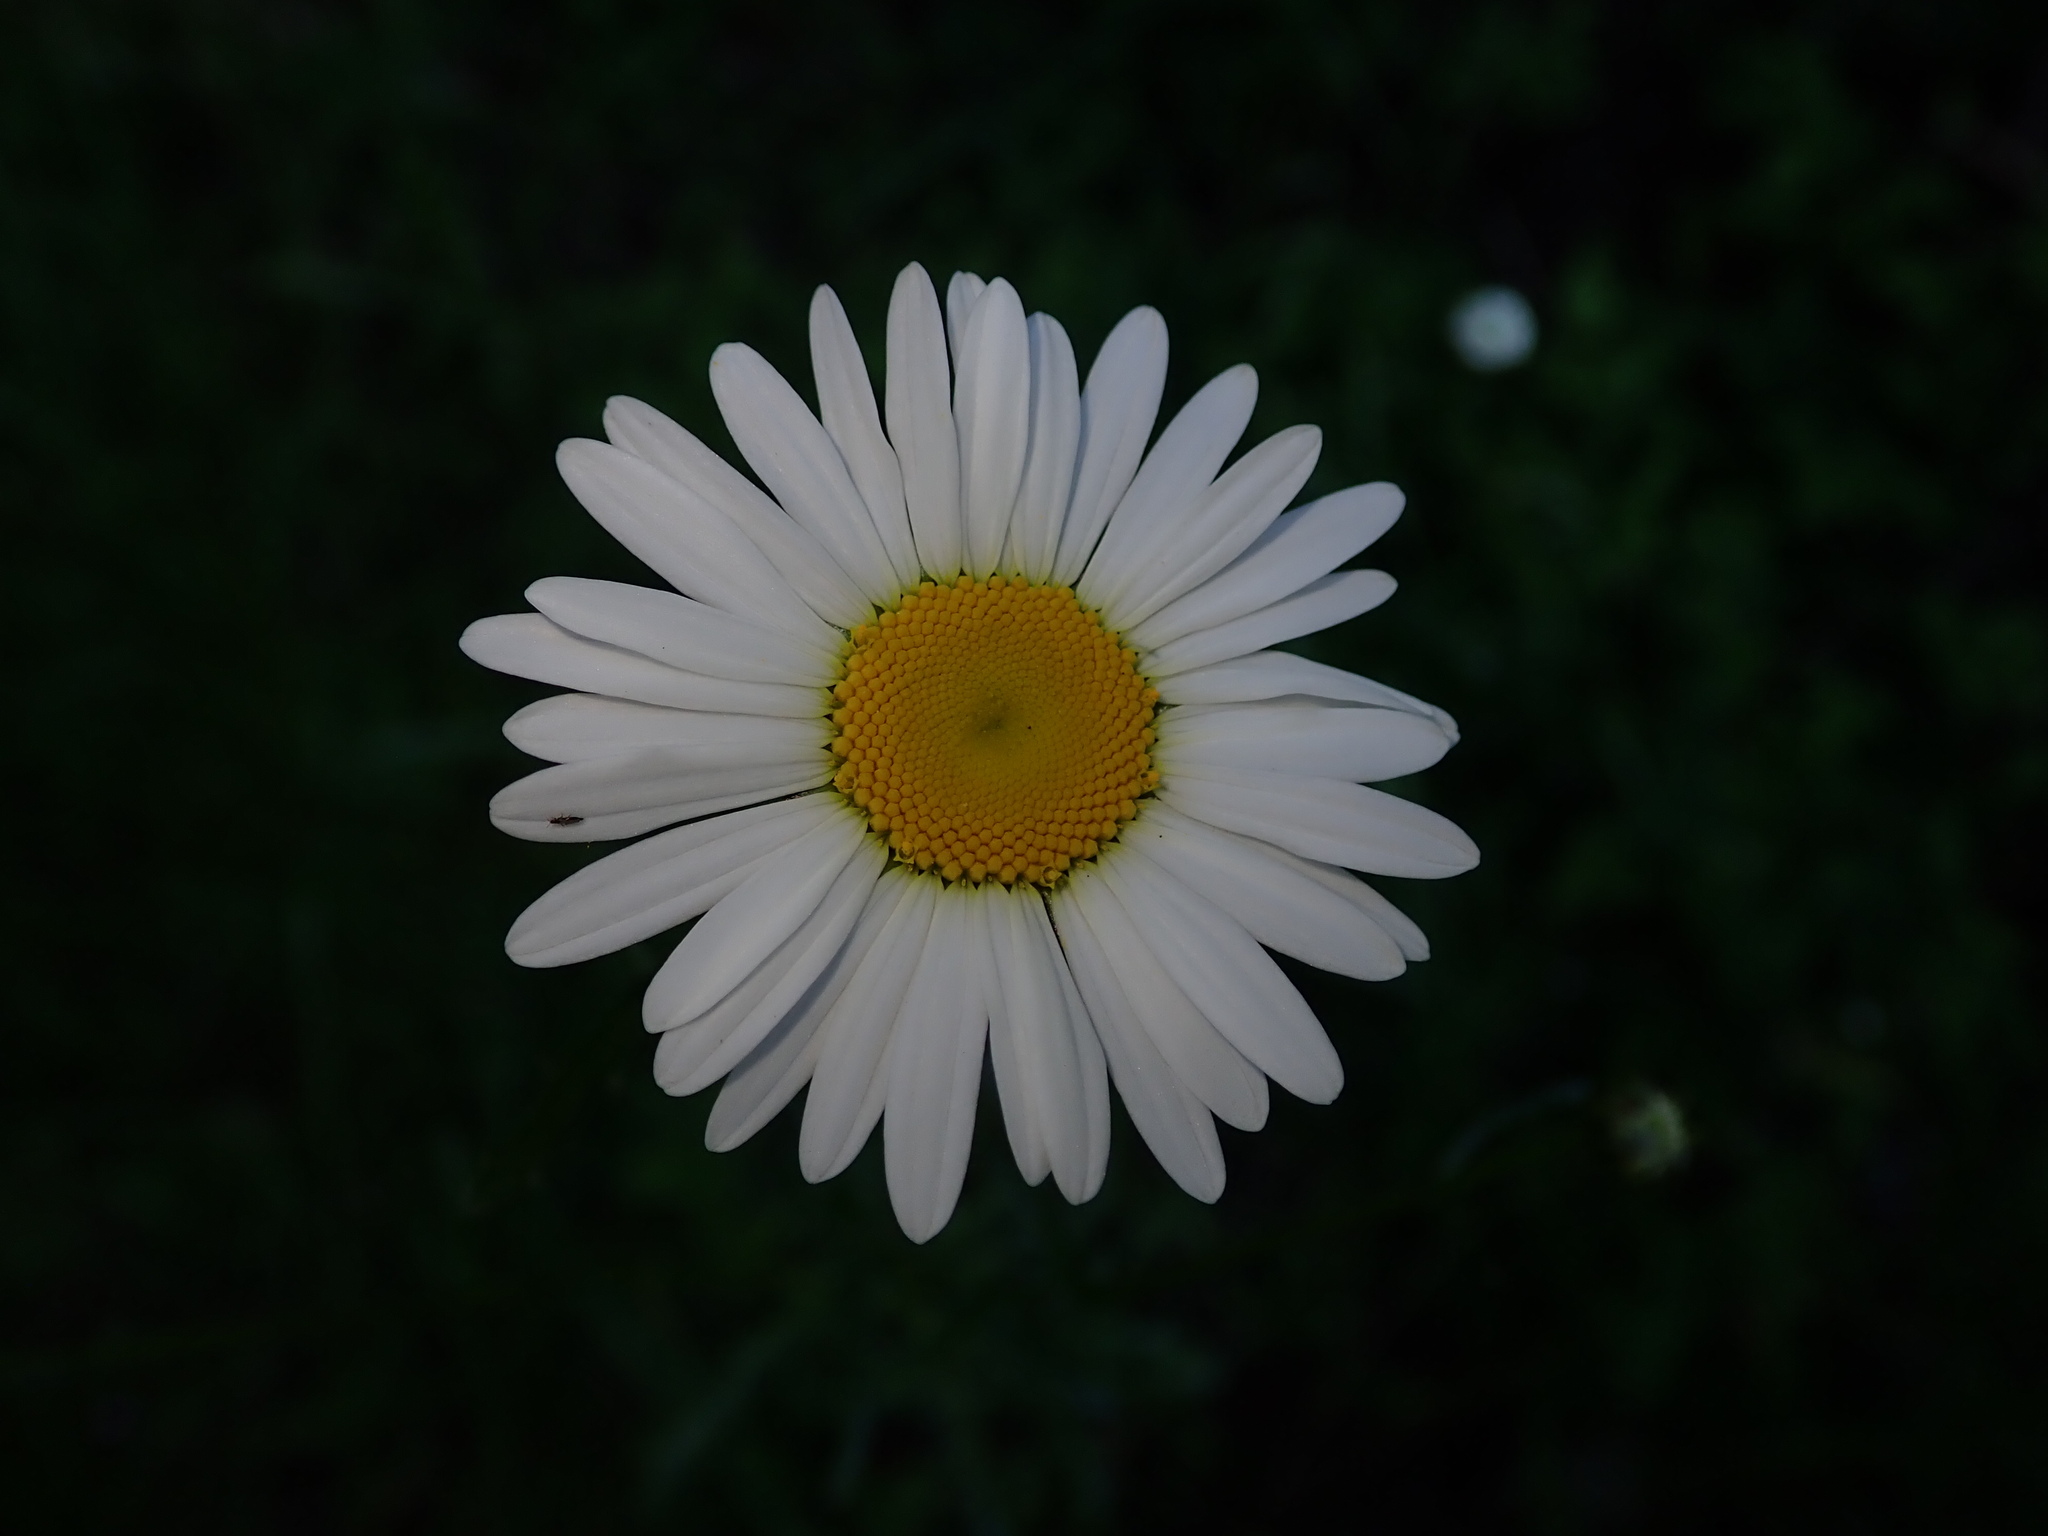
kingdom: Plantae
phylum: Tracheophyta
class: Magnoliopsida
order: Asterales
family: Asteraceae
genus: Leucanthemum
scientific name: Leucanthemum vulgare
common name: Oxeye daisy
